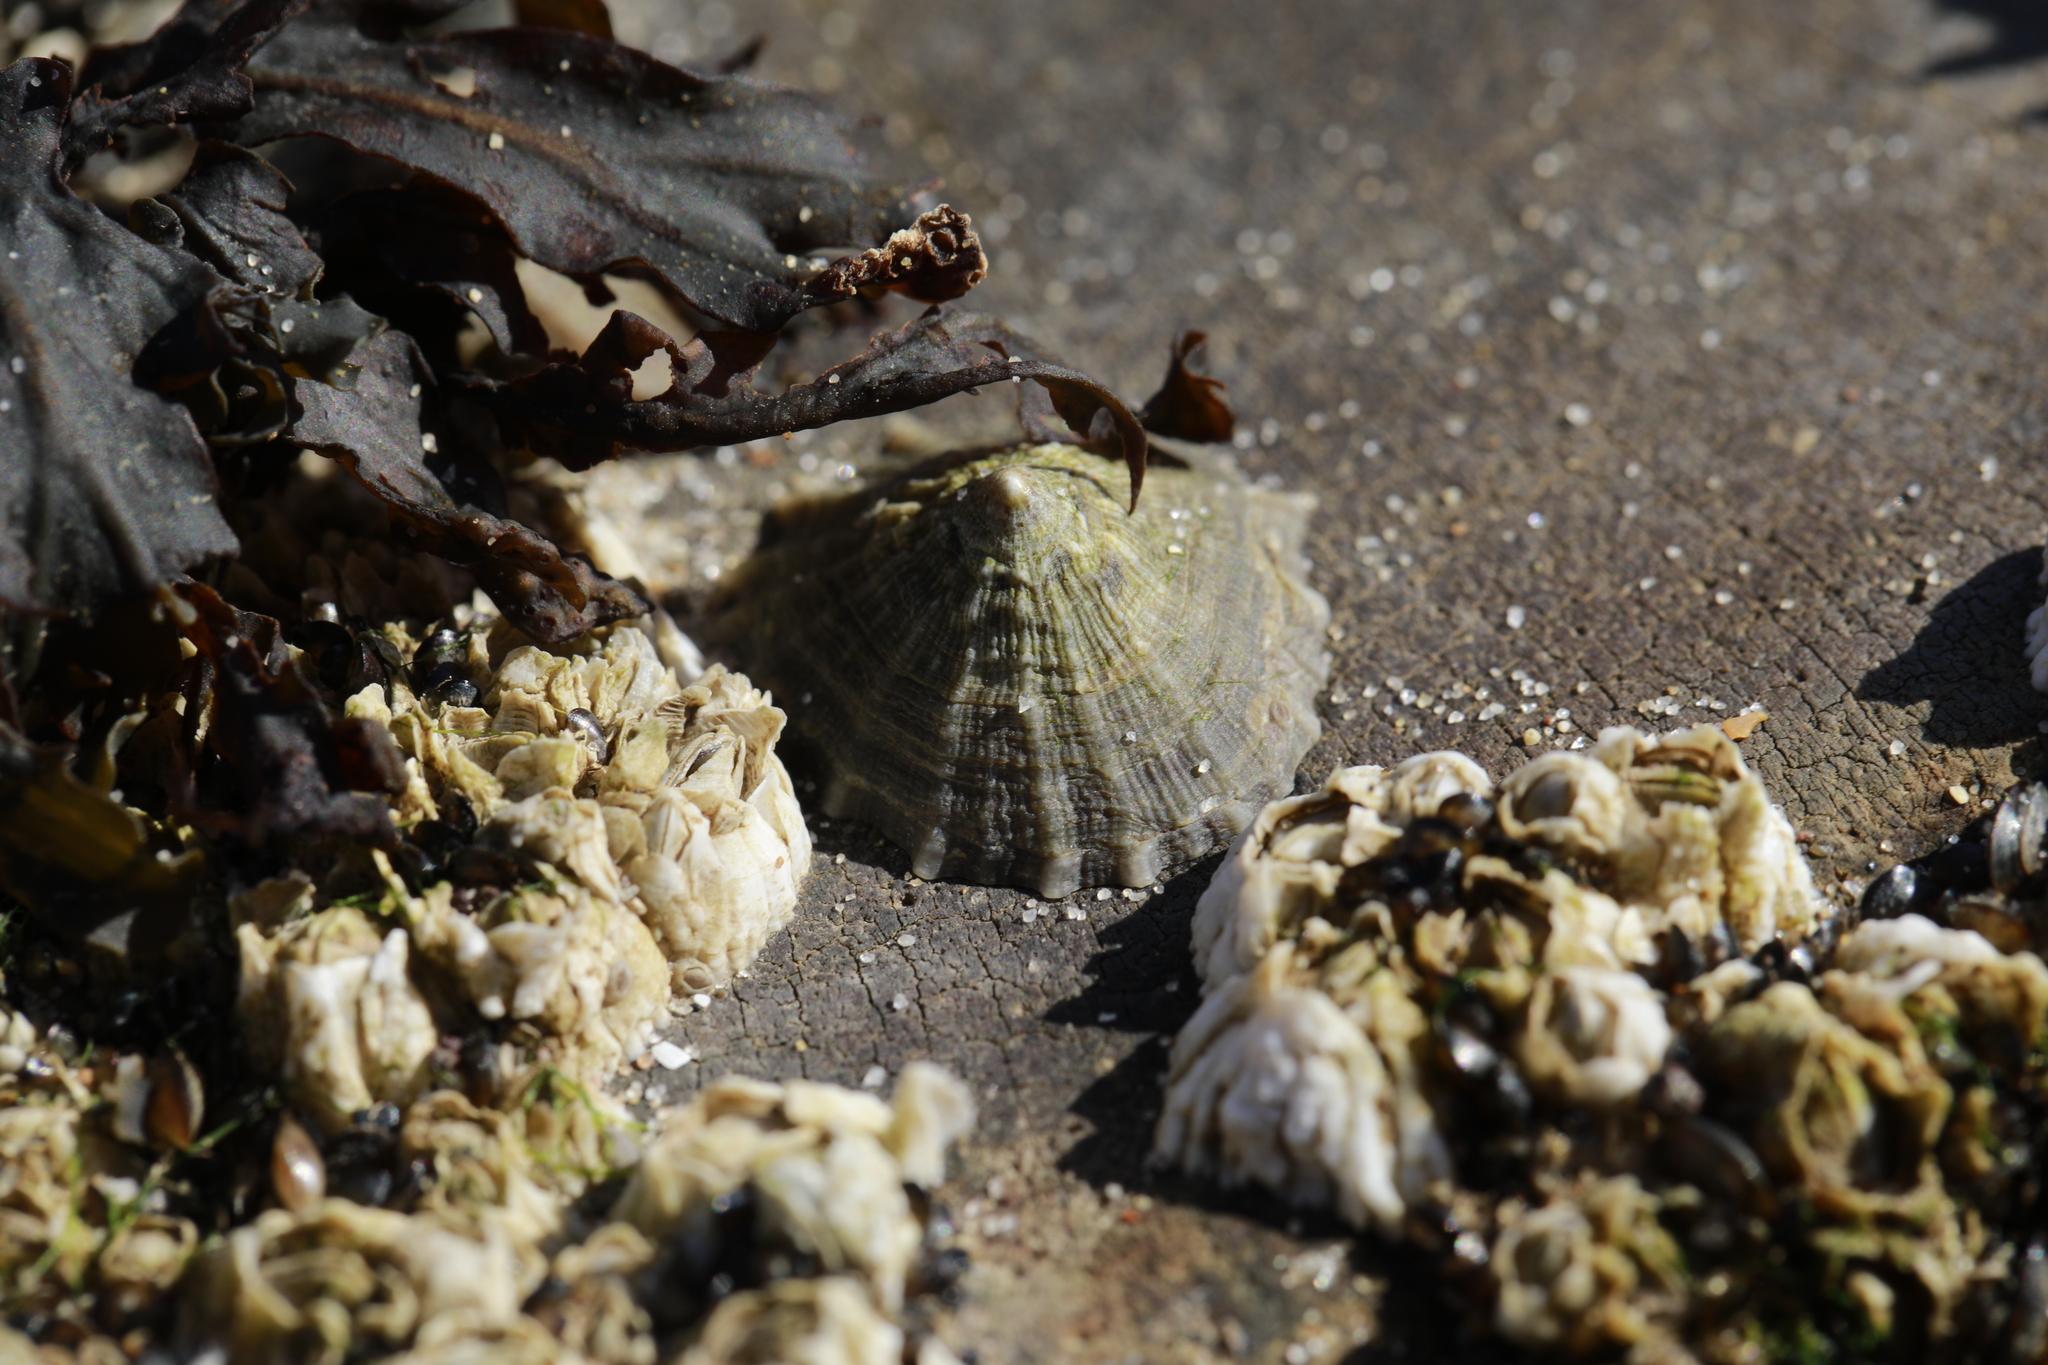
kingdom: Animalia
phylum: Mollusca
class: Gastropoda
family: Patellidae
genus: Patella
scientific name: Patella vulgata
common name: Common limpet
